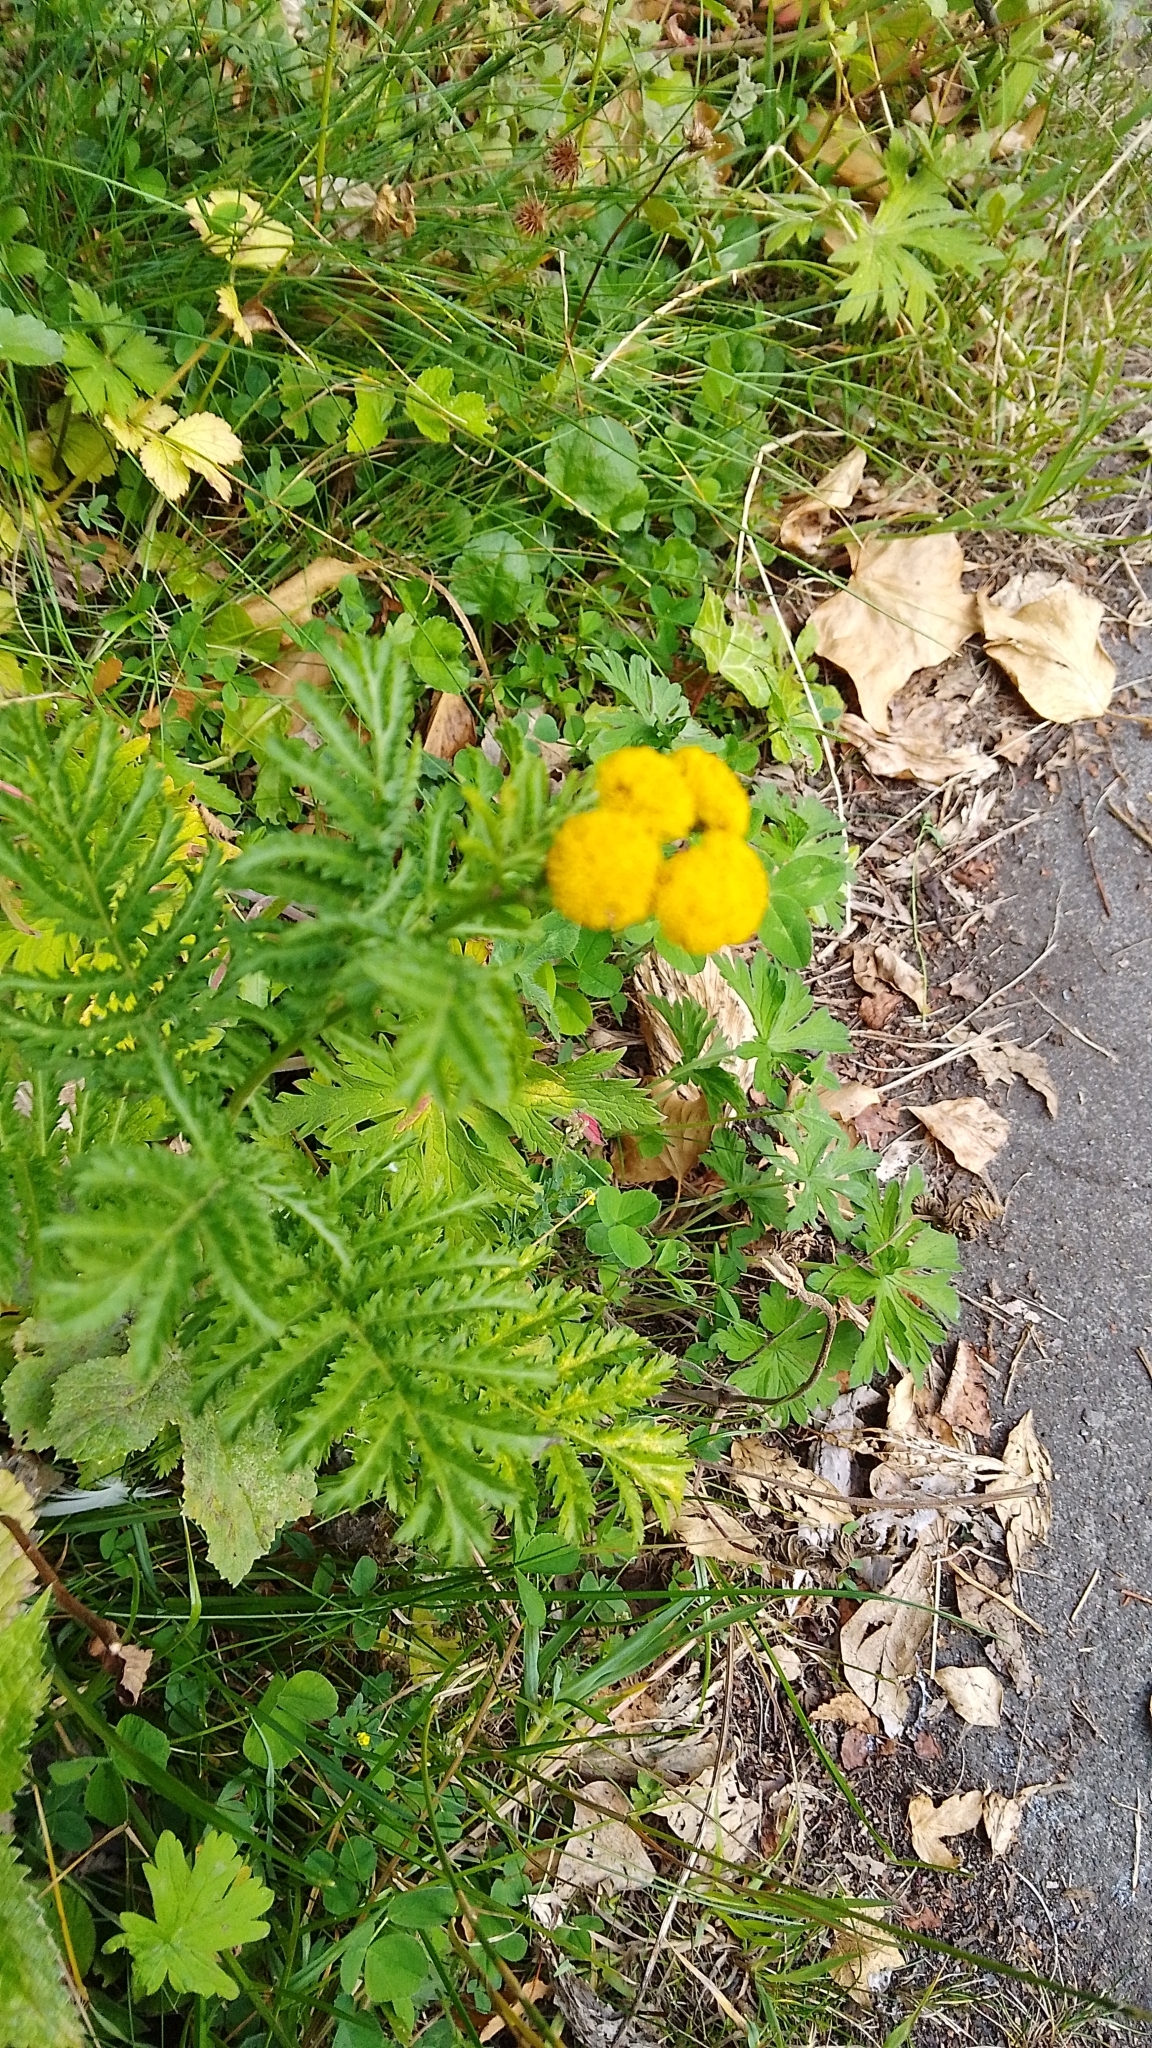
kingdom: Plantae
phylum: Tracheophyta
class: Magnoliopsida
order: Asterales
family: Asteraceae
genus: Tanacetum
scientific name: Tanacetum vulgare
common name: Common tansy
